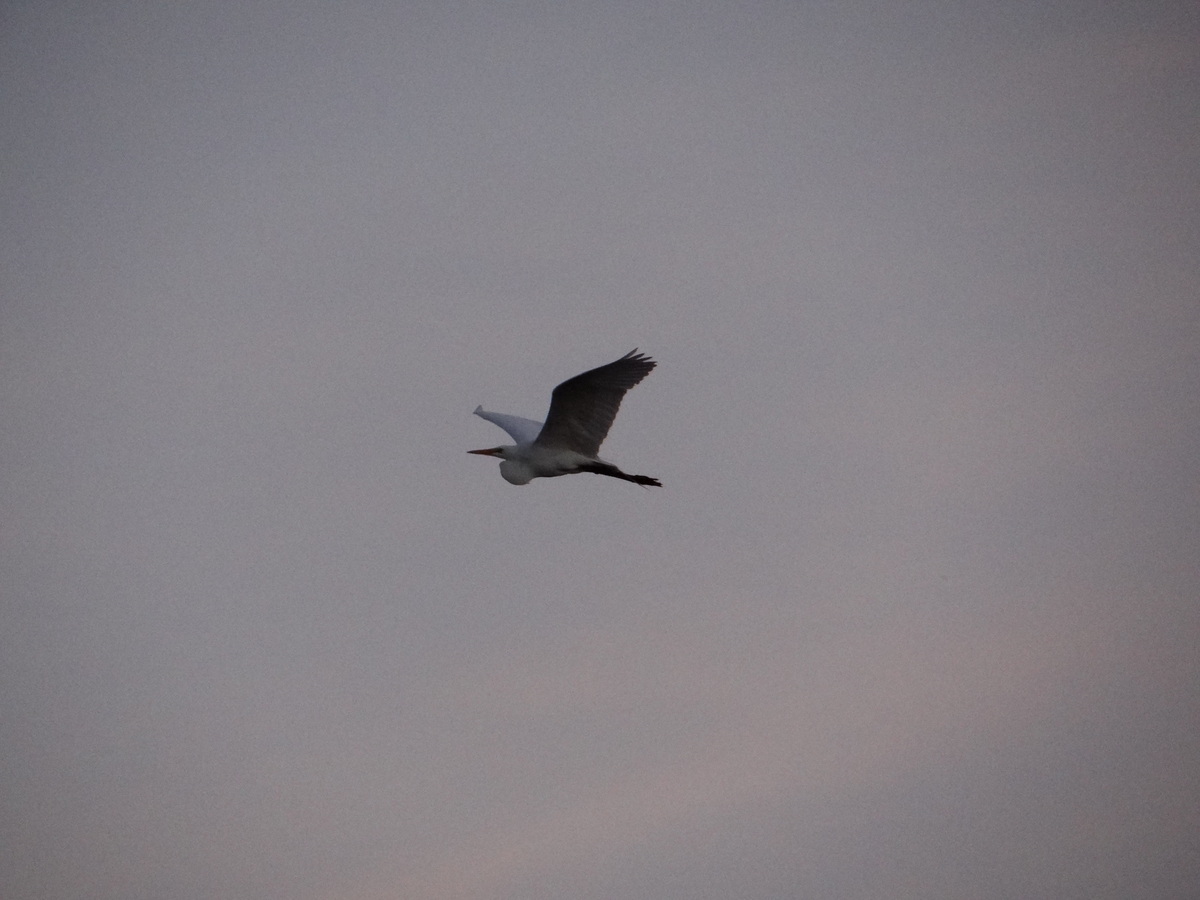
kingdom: Animalia
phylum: Chordata
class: Aves
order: Pelecaniformes
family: Ardeidae
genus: Ardea
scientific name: Ardea alba
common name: Great egret
